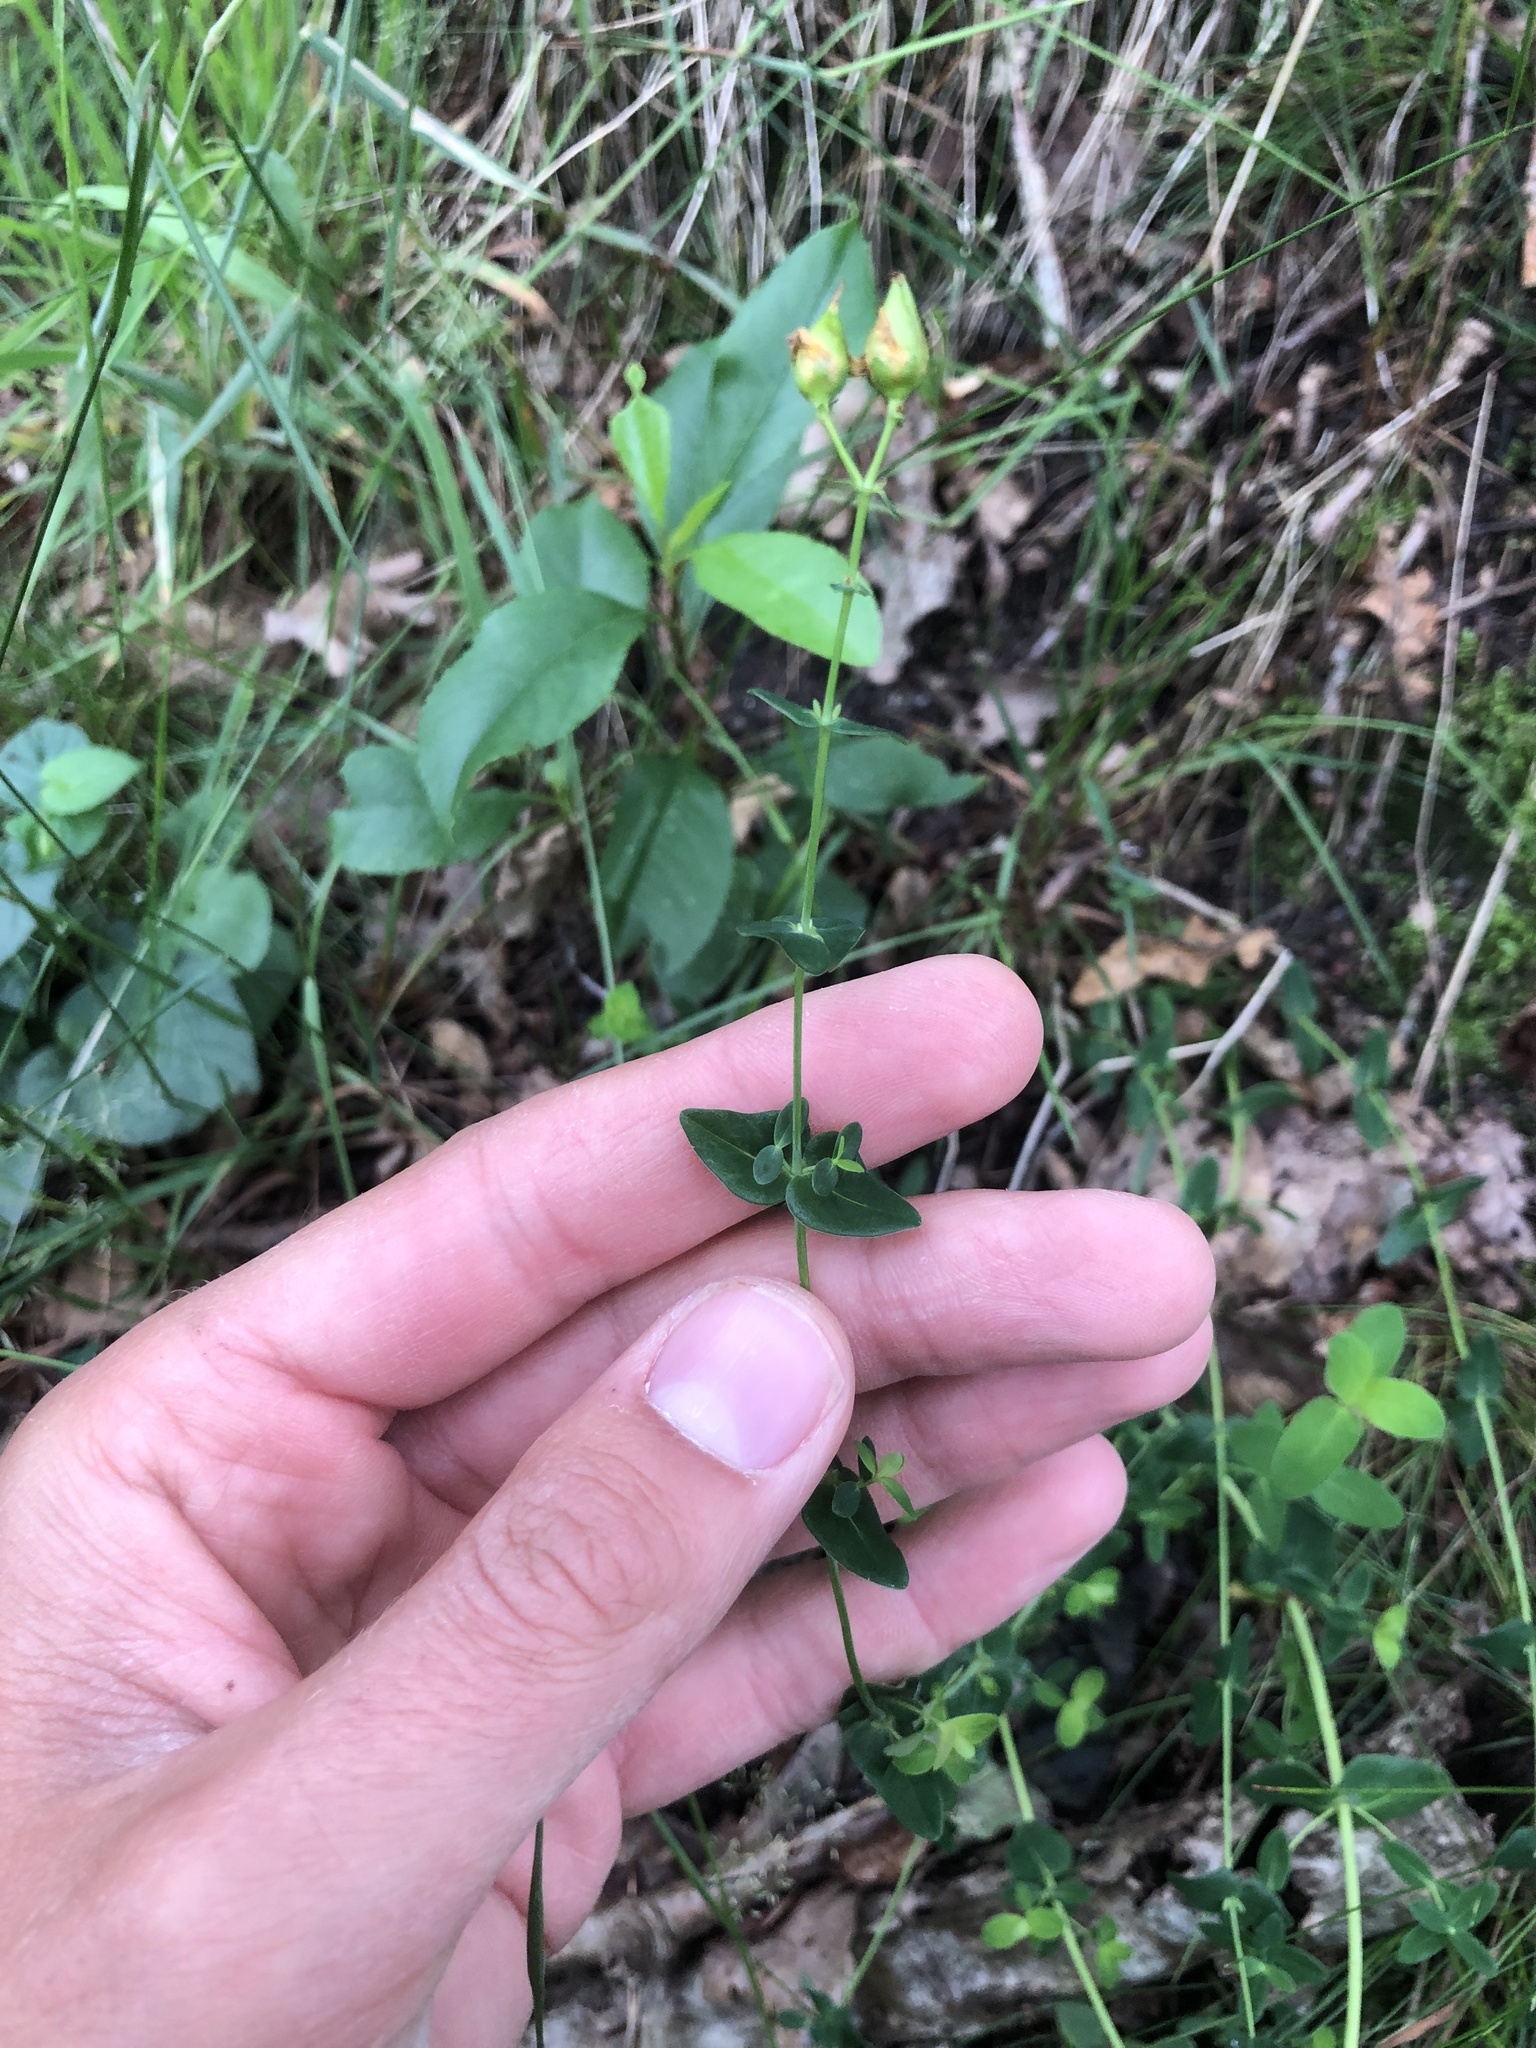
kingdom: Plantae
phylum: Tracheophyta
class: Magnoliopsida
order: Malpighiales
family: Hypericaceae
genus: Hypericum
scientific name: Hypericum pulchrum
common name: Slender st. john's-wort
